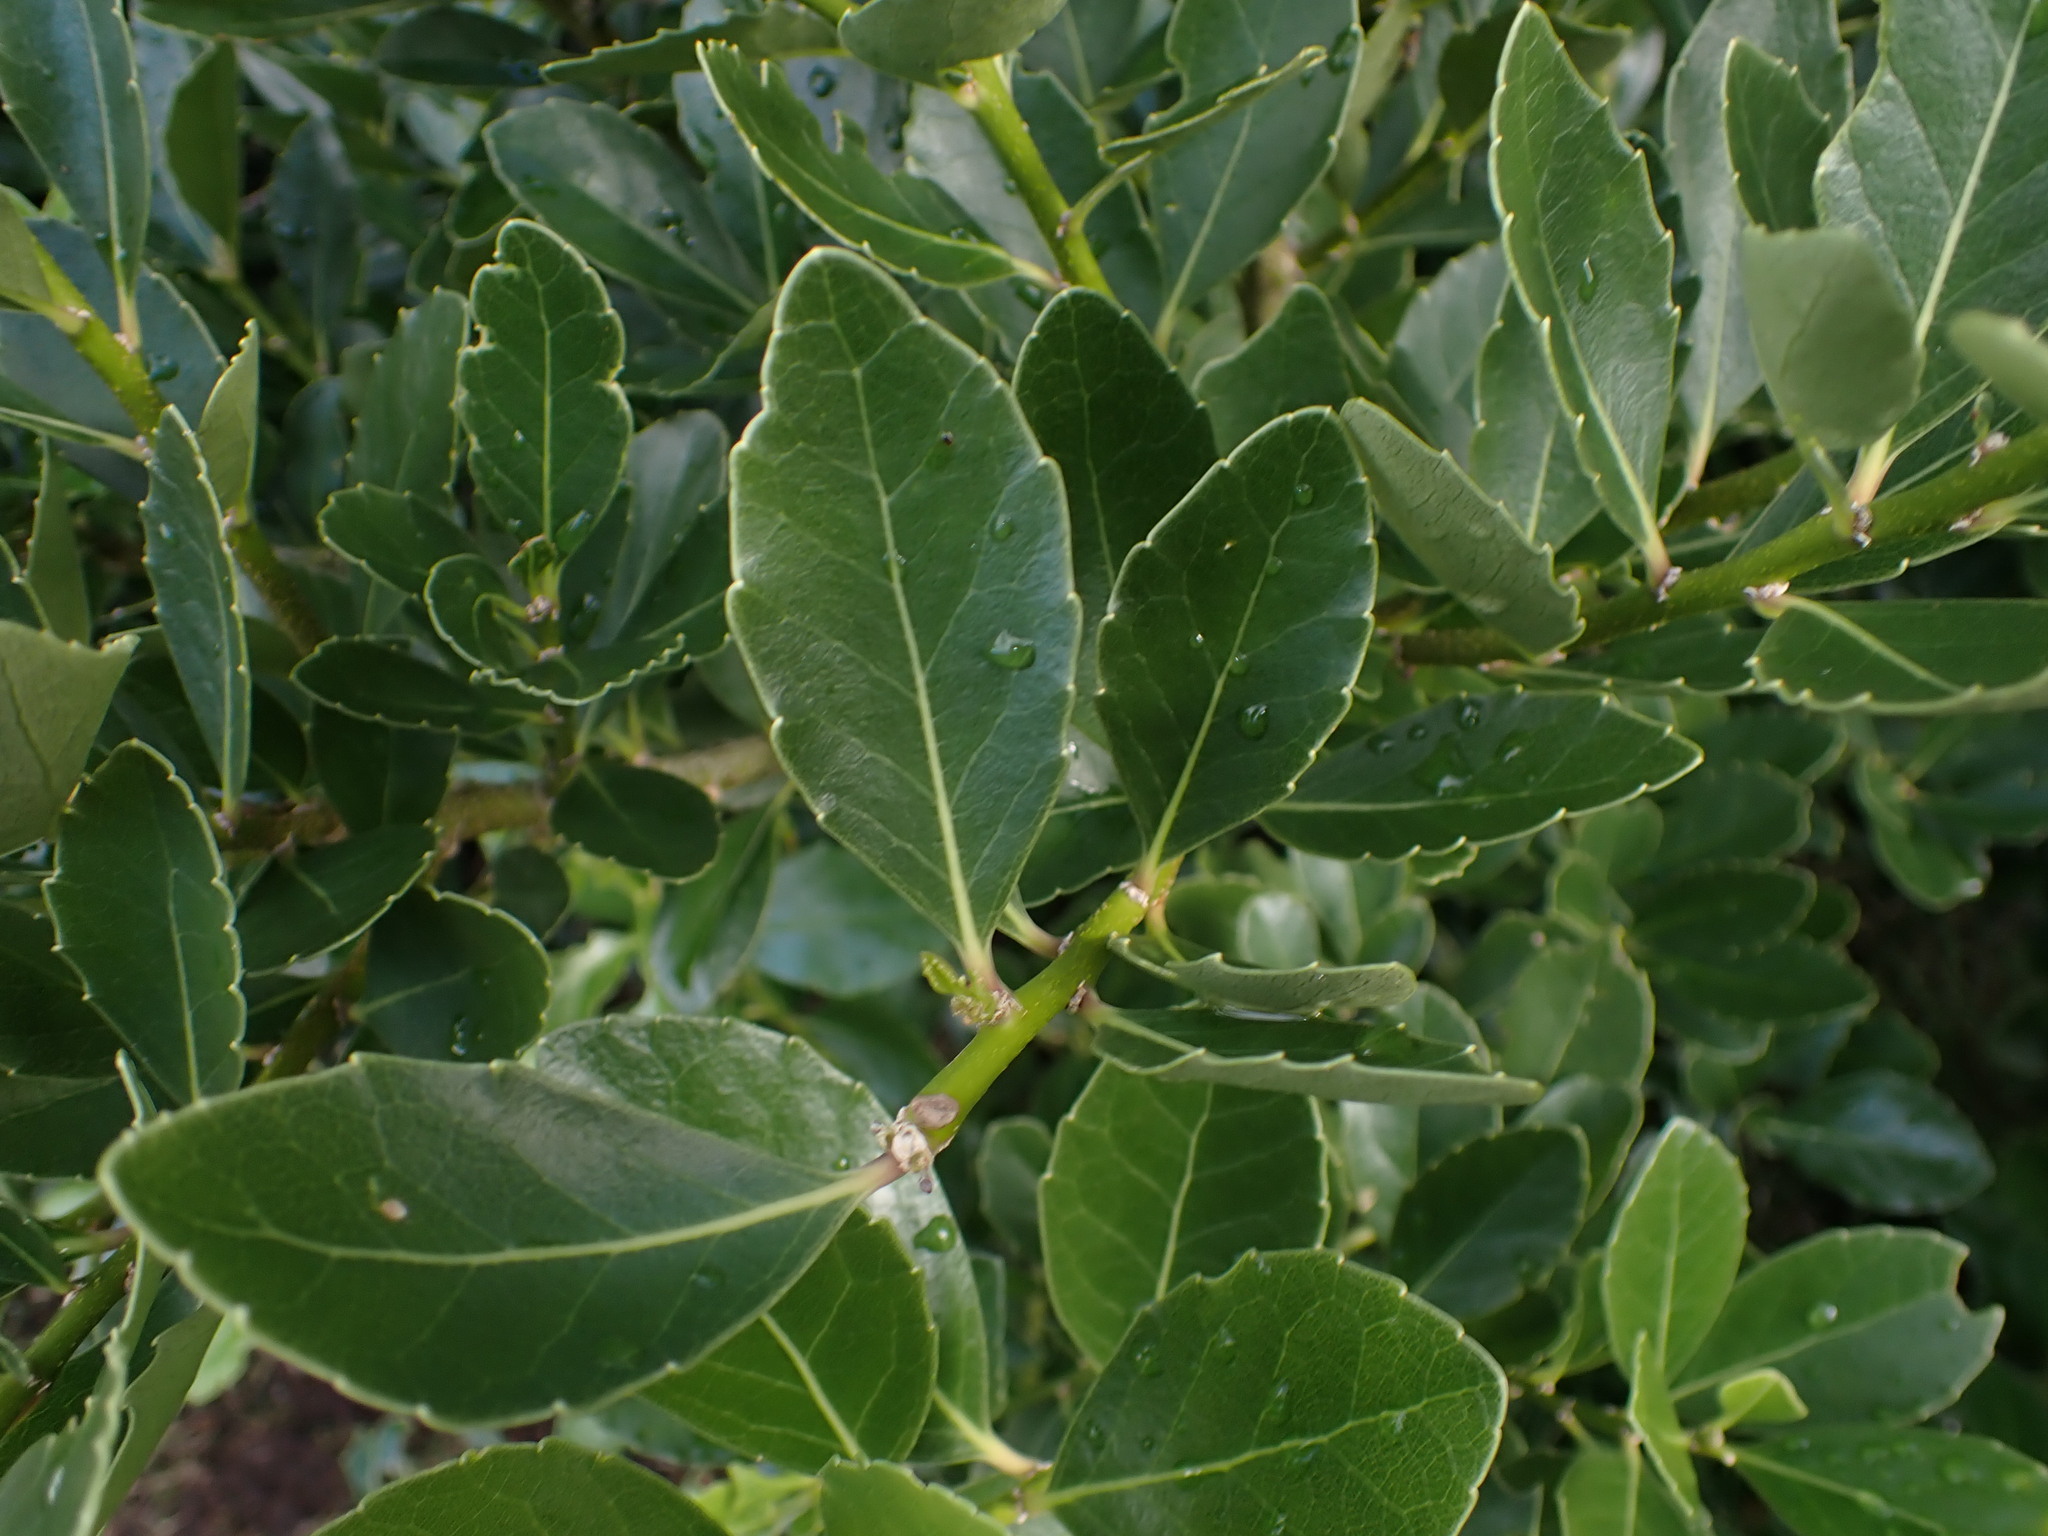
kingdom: Plantae
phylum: Tracheophyta
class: Magnoliopsida
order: Malpighiales
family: Violaceae
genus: Melicytus
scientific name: Melicytus novae-zelandiae
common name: Coastal mahoe
